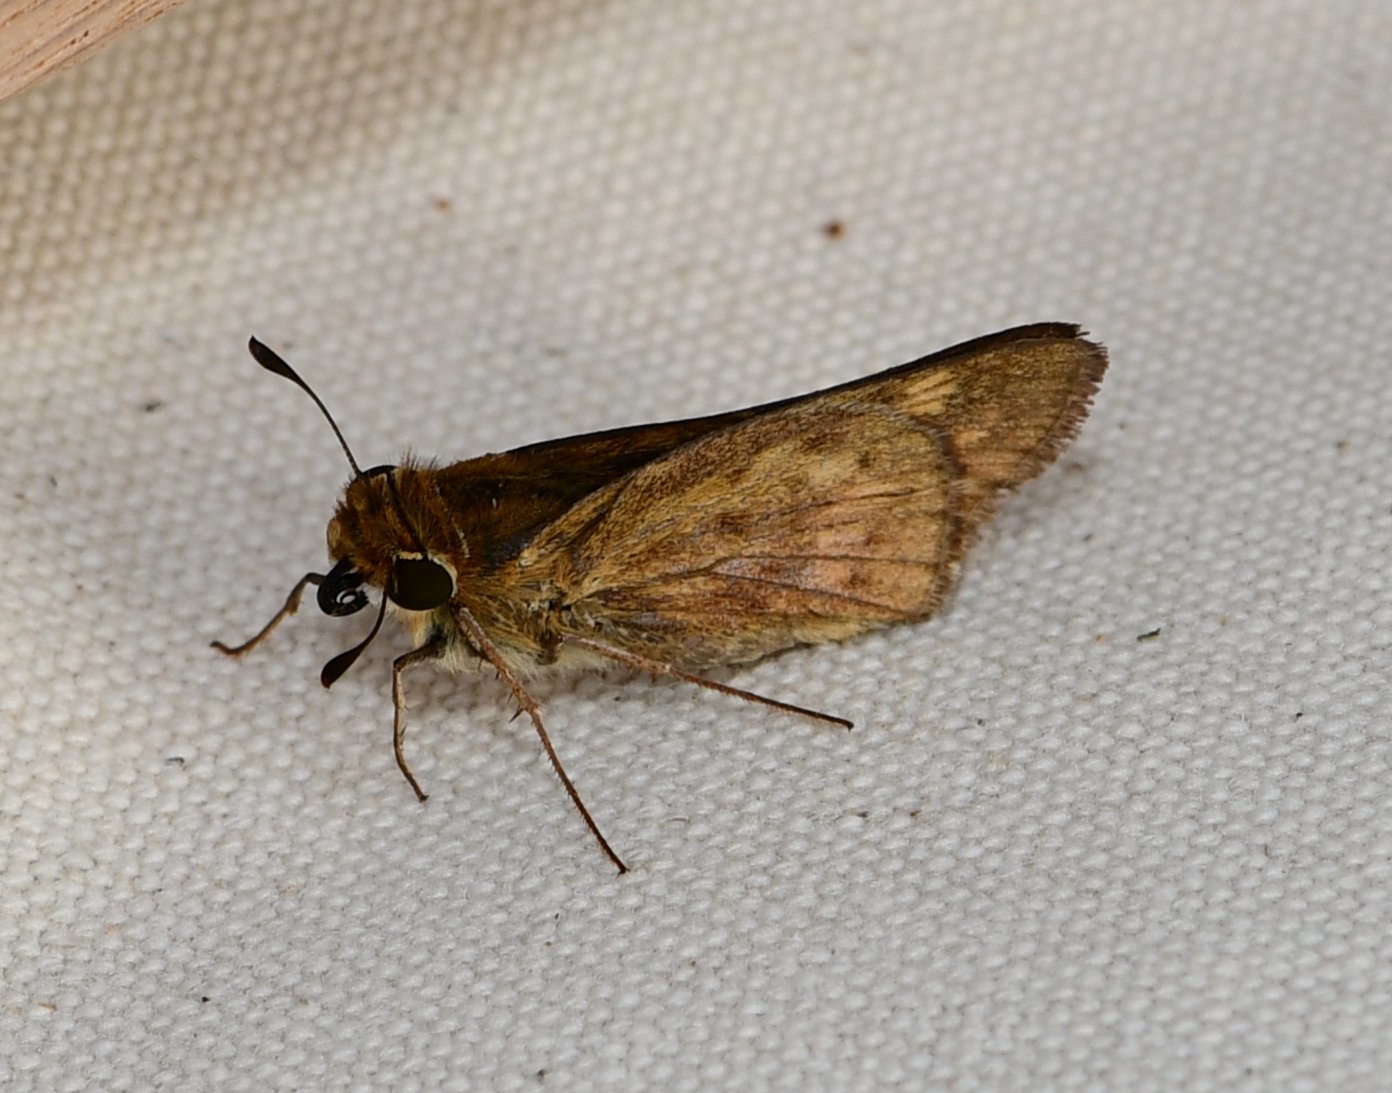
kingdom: Animalia
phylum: Arthropoda
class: Insecta
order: Lepidoptera
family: Hesperiidae
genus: Hylephila
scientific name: Hylephila phyleus
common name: Fiery skipper
